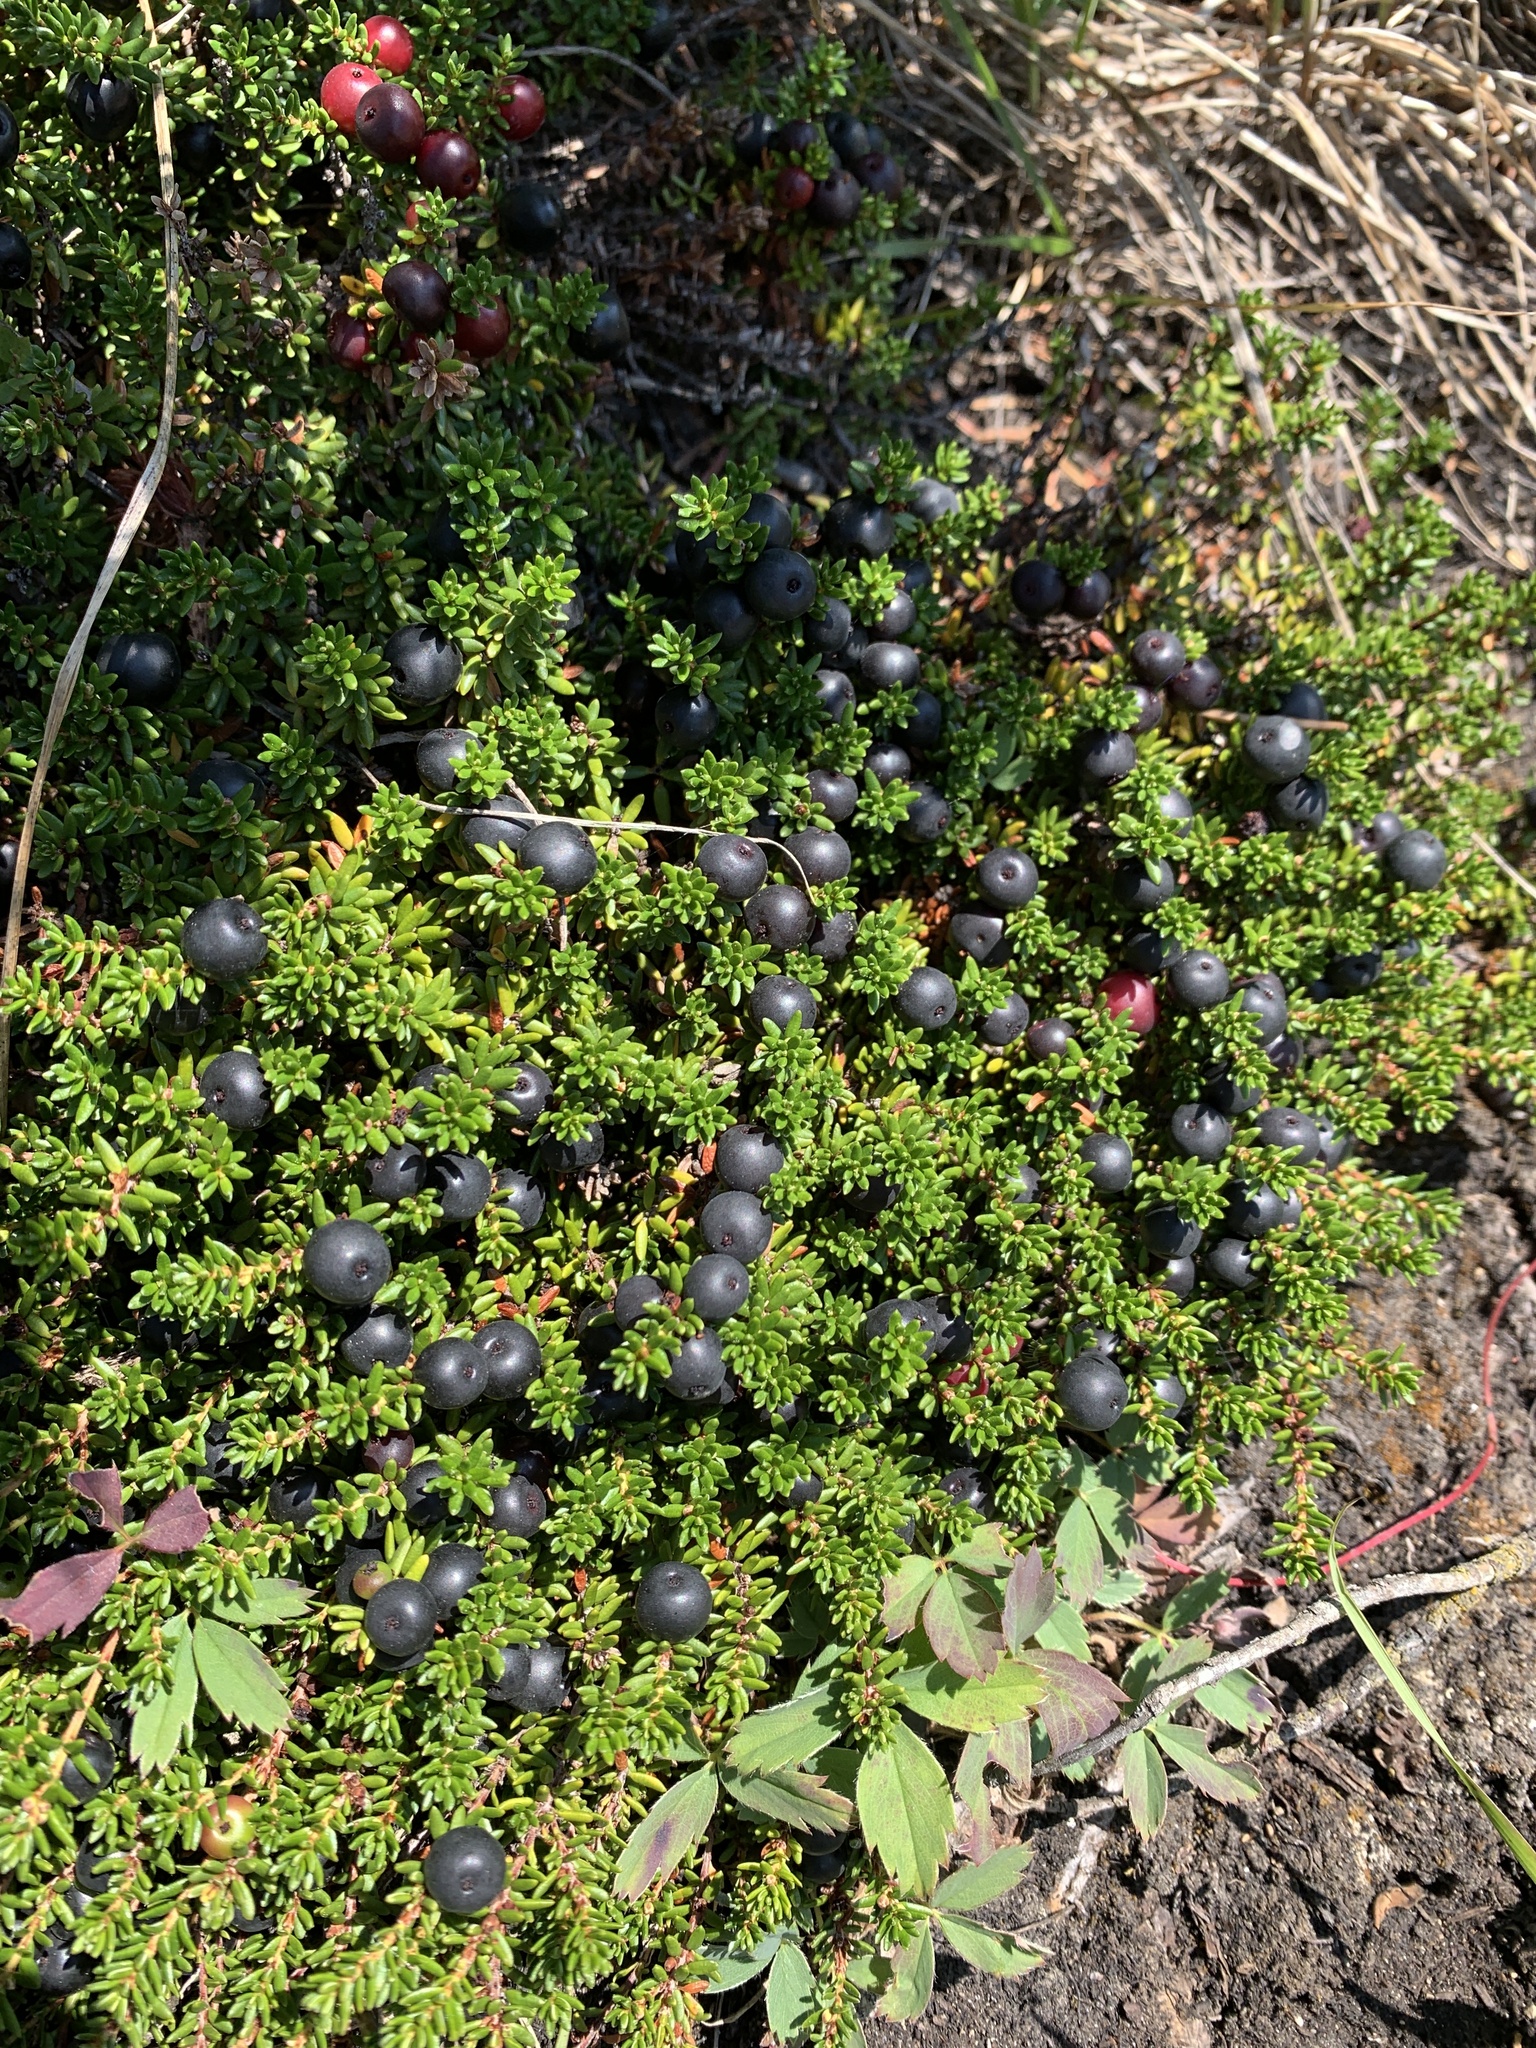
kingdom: Plantae
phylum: Tracheophyta
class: Magnoliopsida
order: Ericales
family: Ericaceae
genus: Empetrum
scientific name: Empetrum nigrum
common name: Black crowberry
